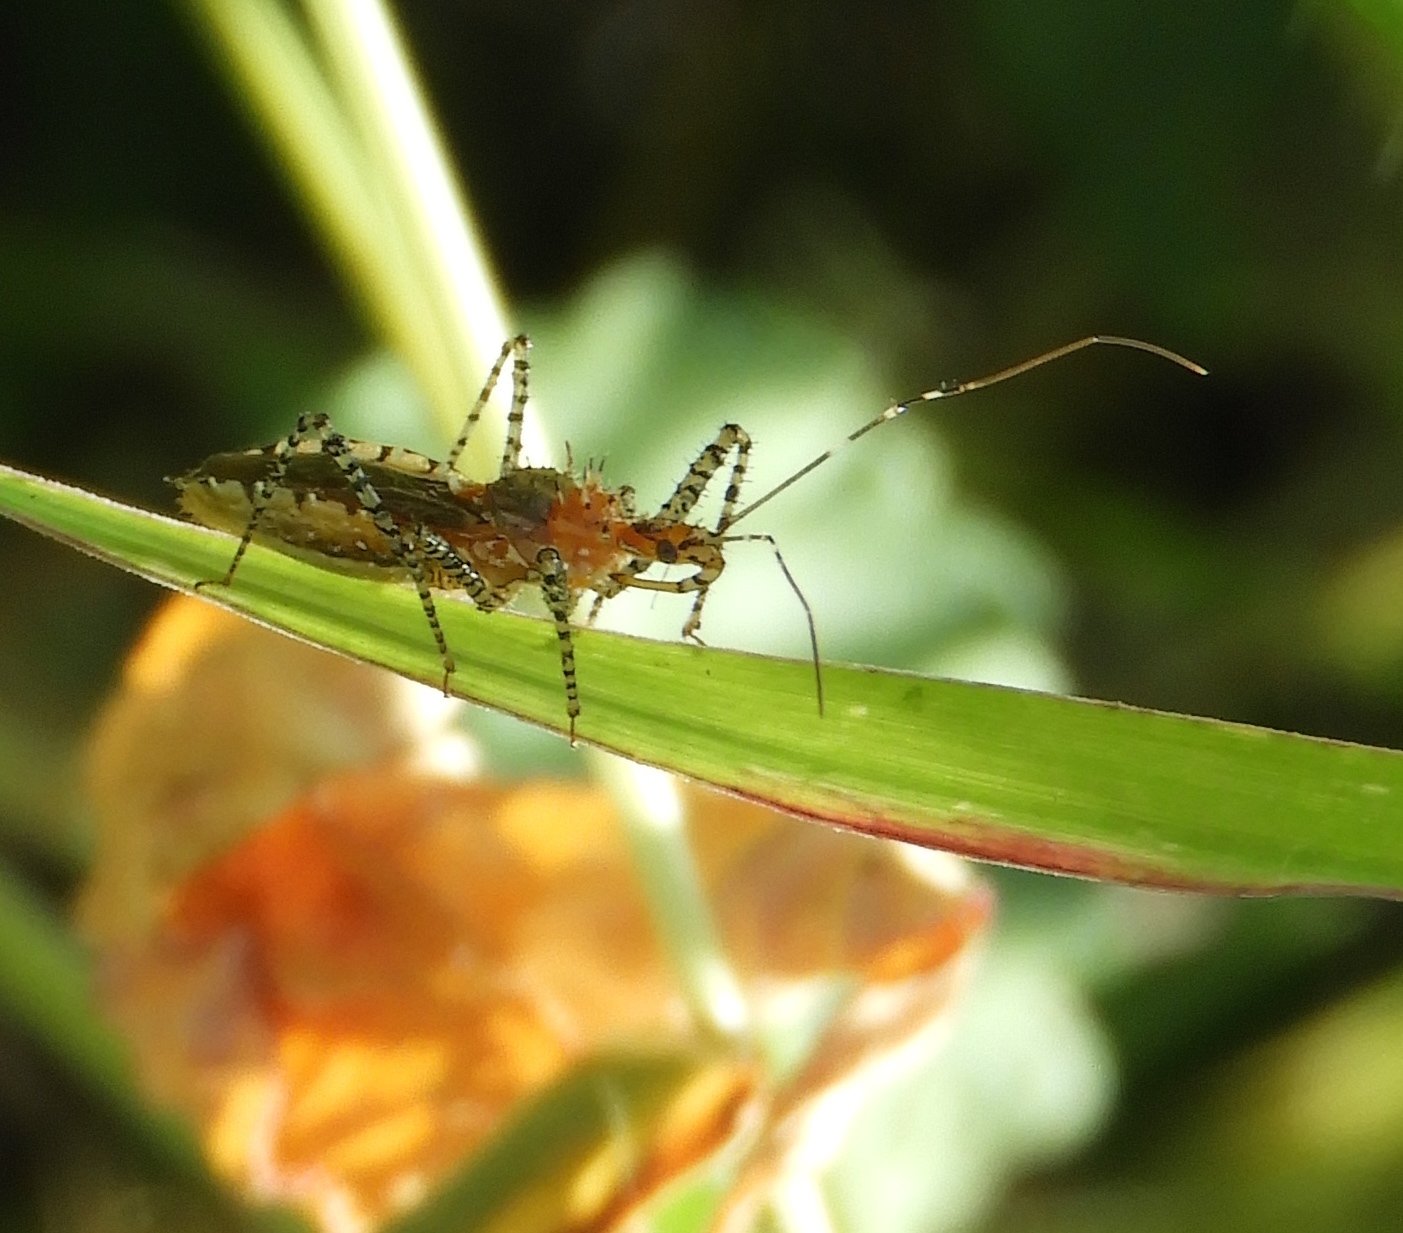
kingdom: Animalia
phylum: Arthropoda
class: Insecta
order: Hemiptera
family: Reduviidae
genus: Pselliopus
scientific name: Pselliopus
